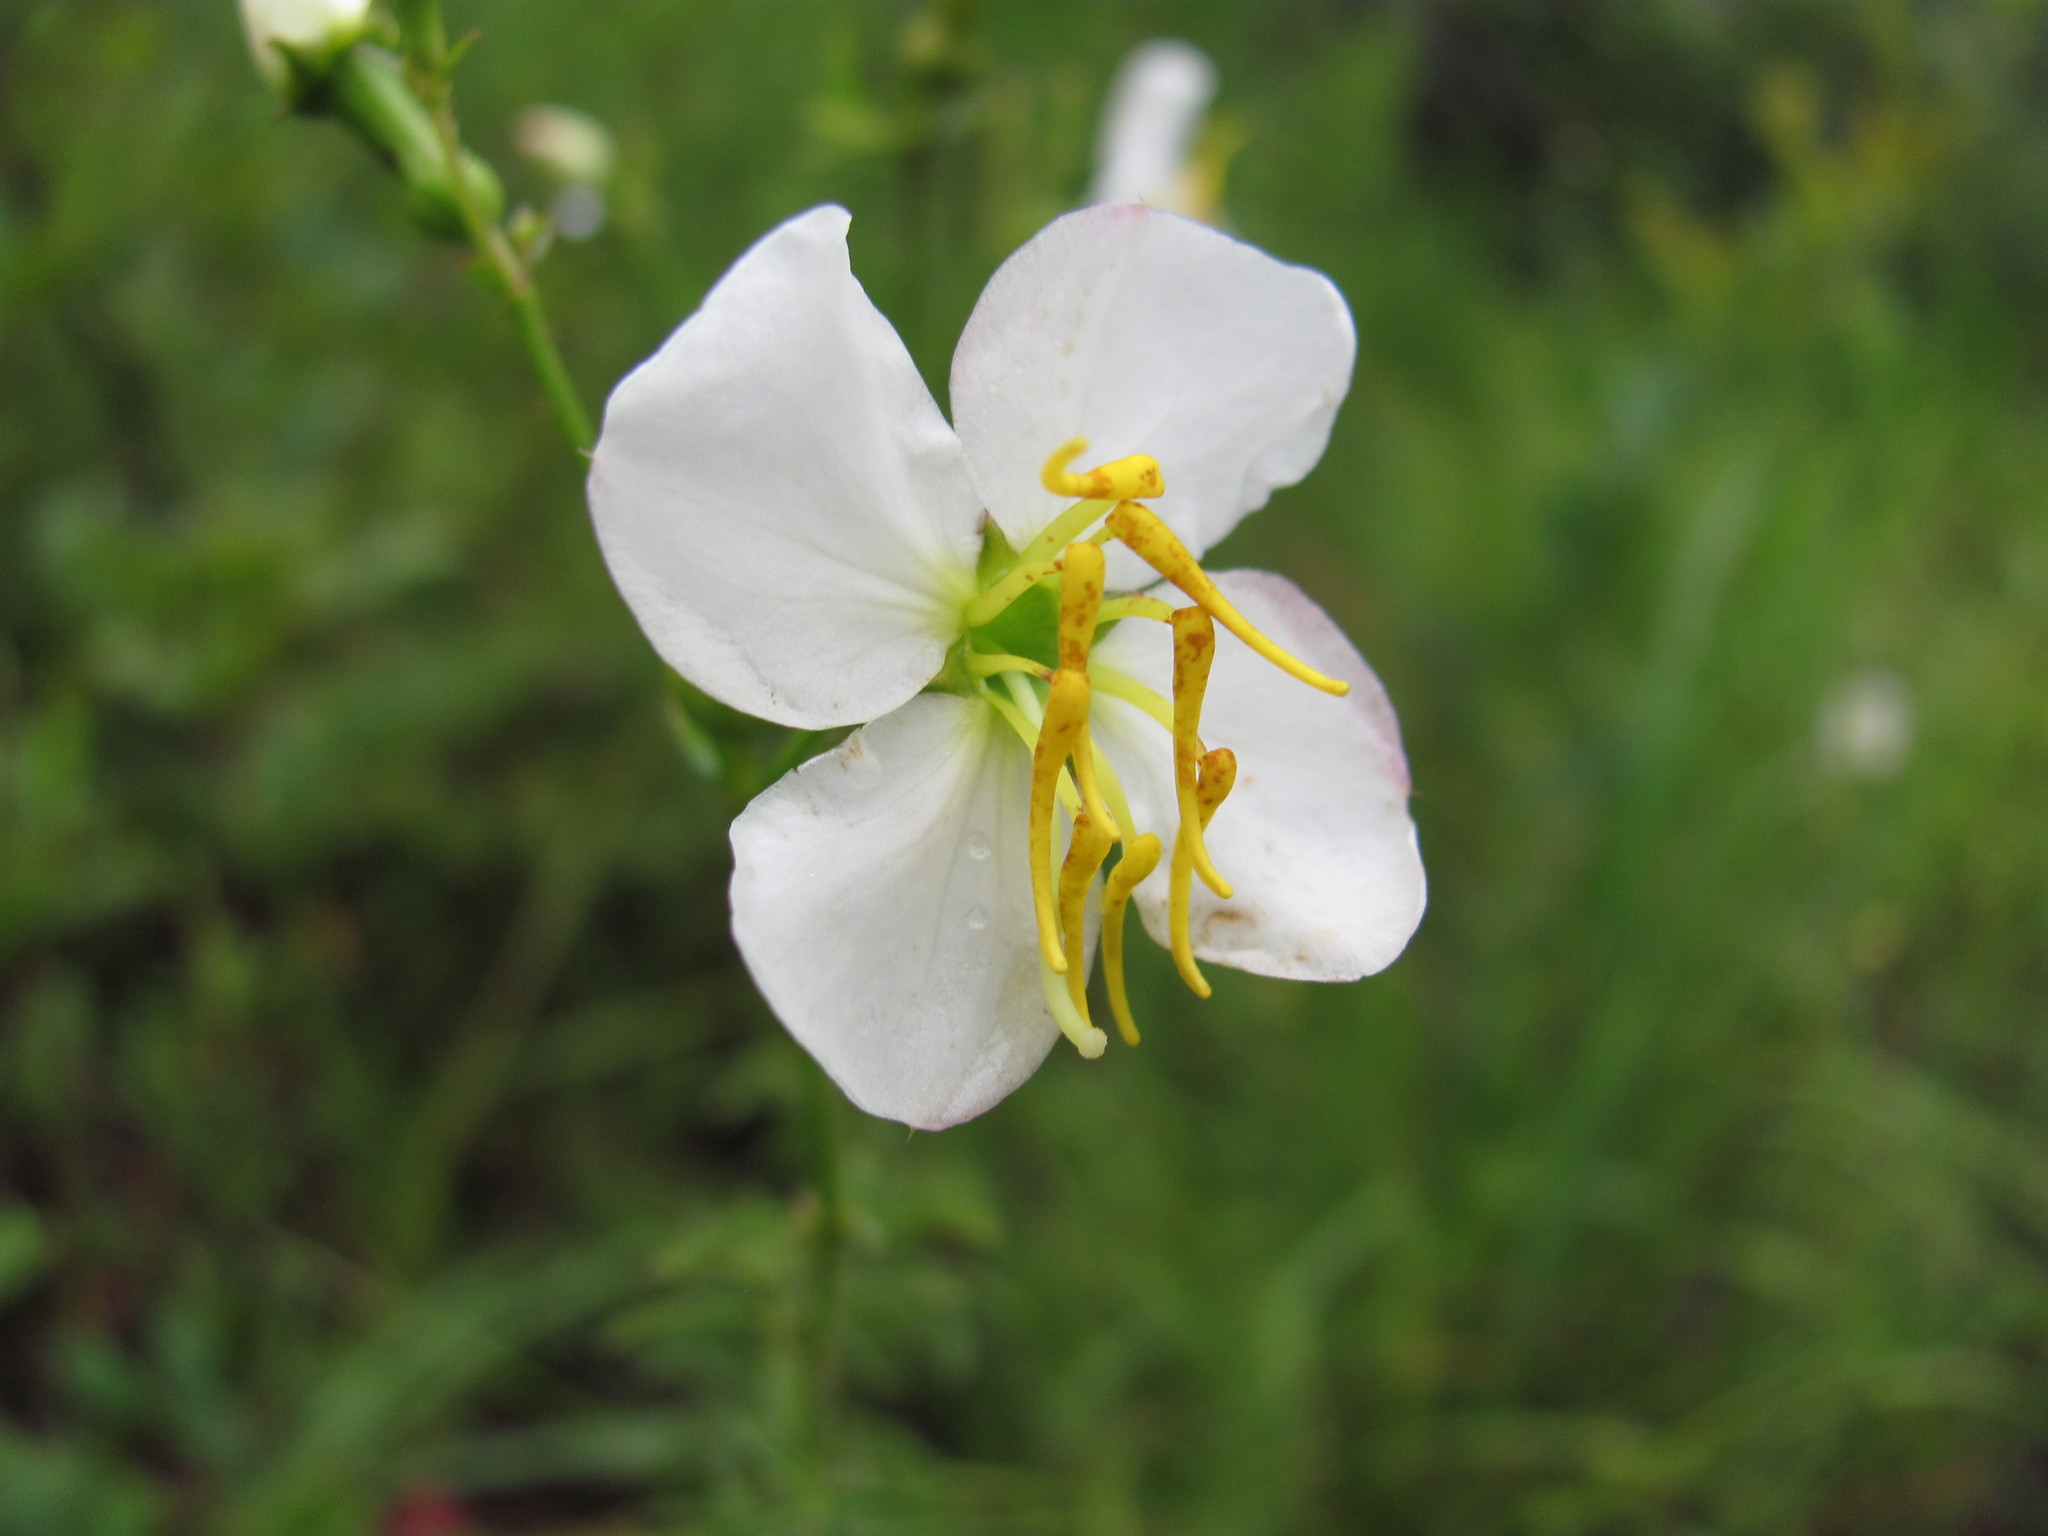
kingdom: Plantae
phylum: Tracheophyta
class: Magnoliopsida
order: Myrtales
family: Melastomataceae
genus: Rhexia
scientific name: Rhexia mariana
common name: Dull meadow-pitcher
